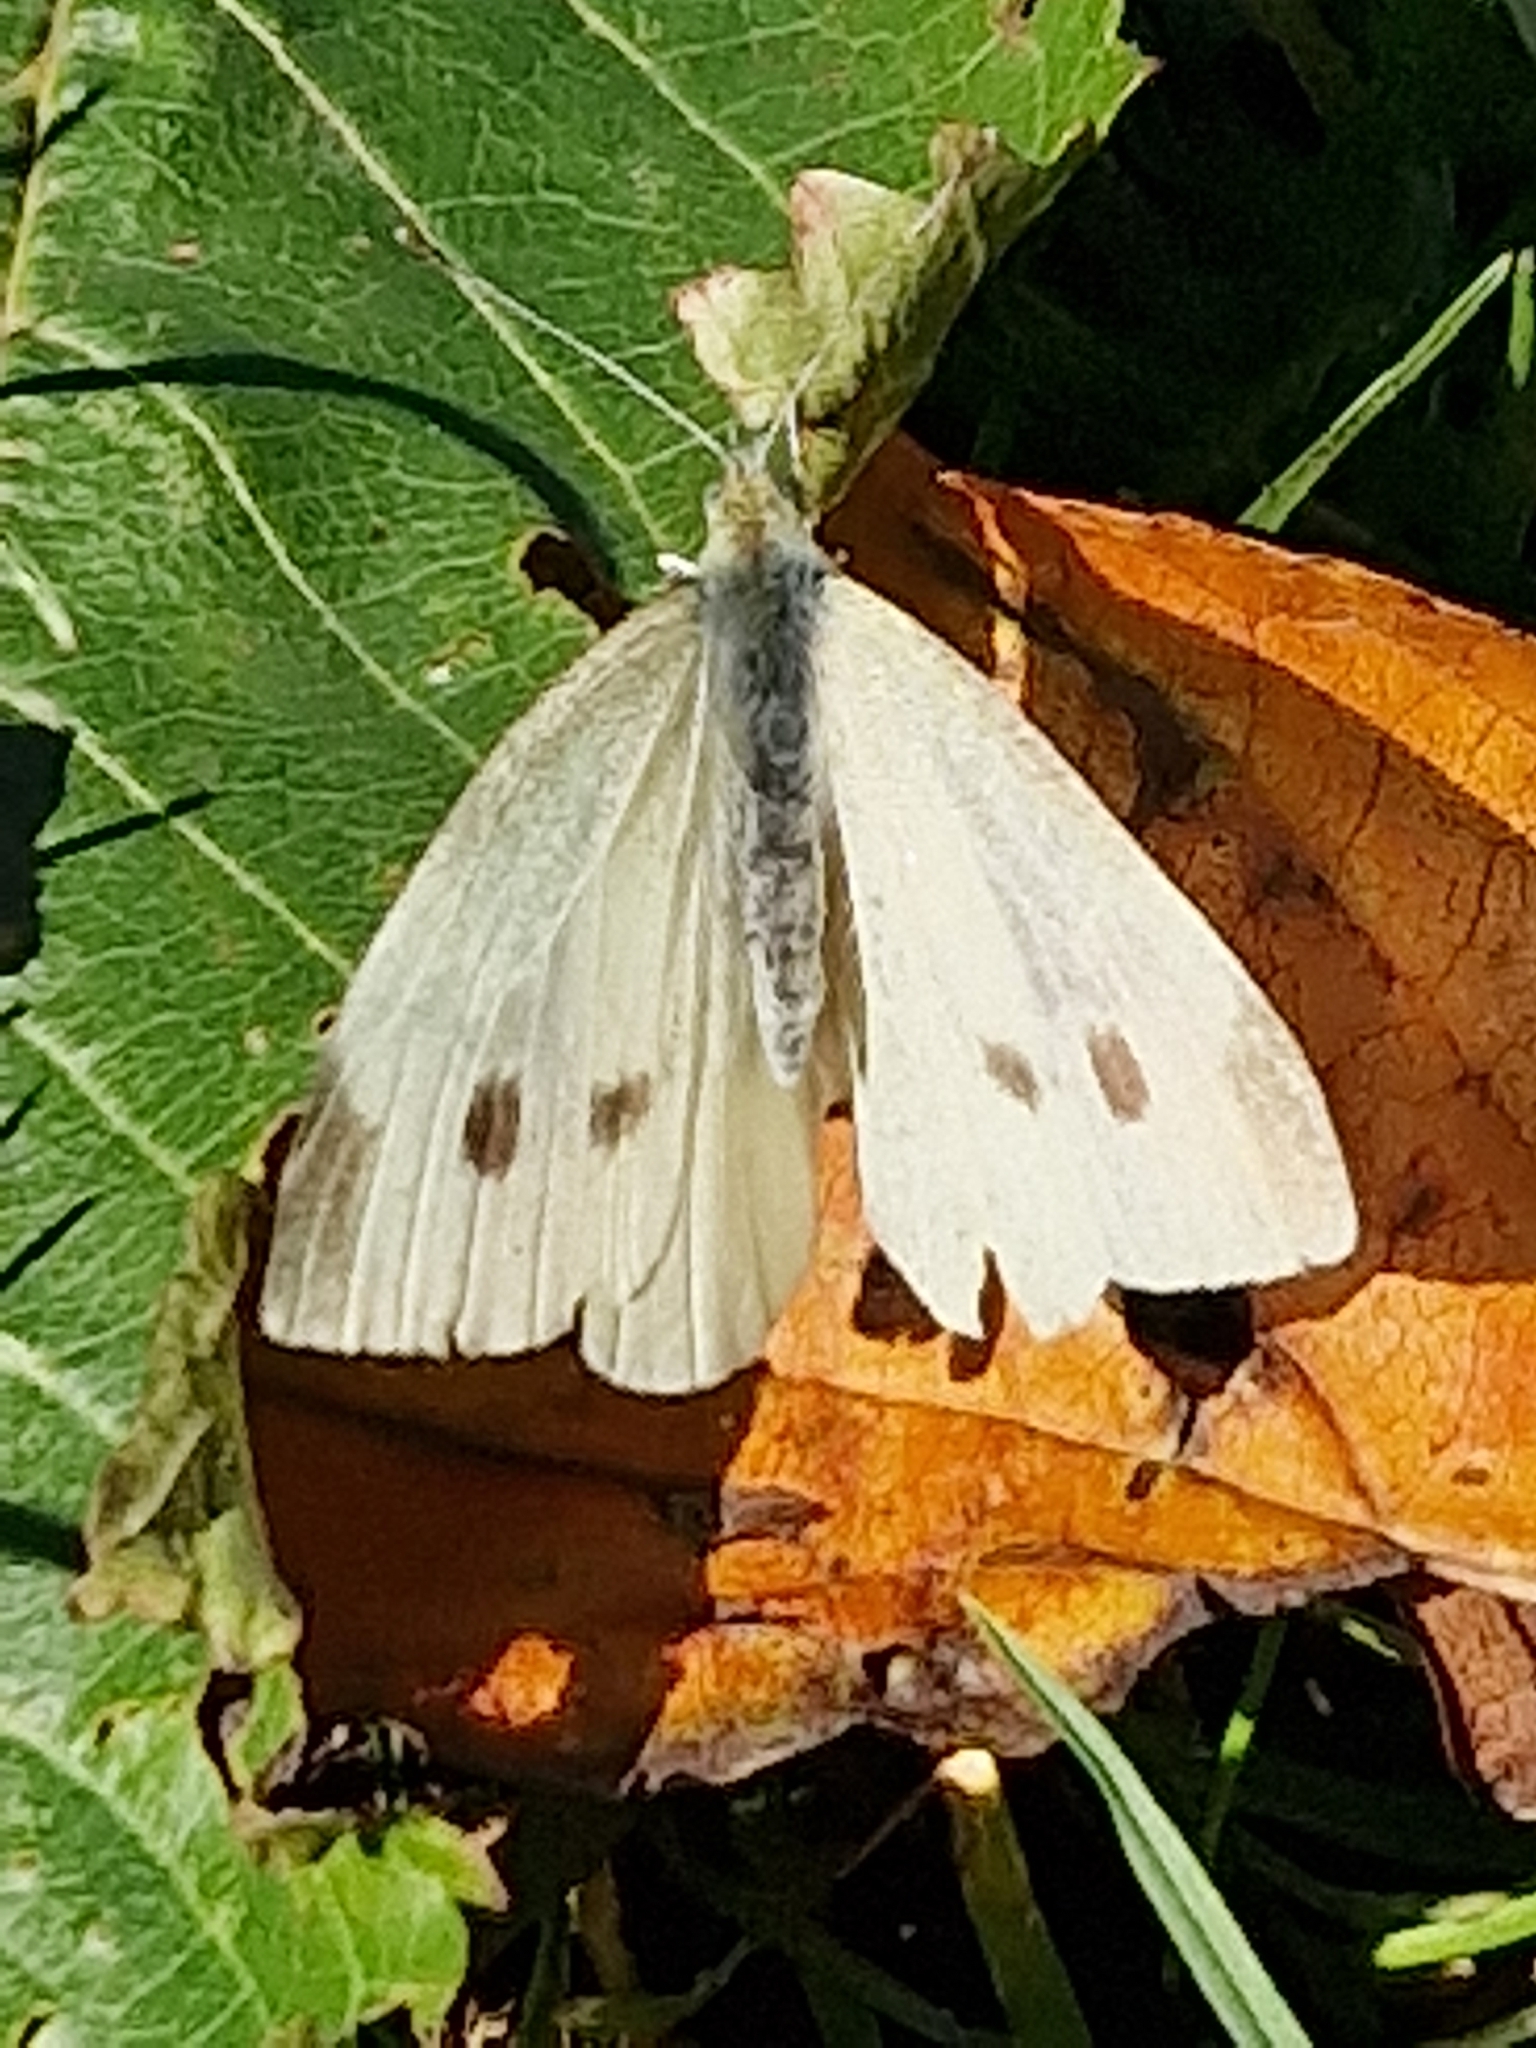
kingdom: Animalia
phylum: Arthropoda
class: Insecta
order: Lepidoptera
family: Pieridae
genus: Pieris
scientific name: Pieris rapae
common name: Small white
